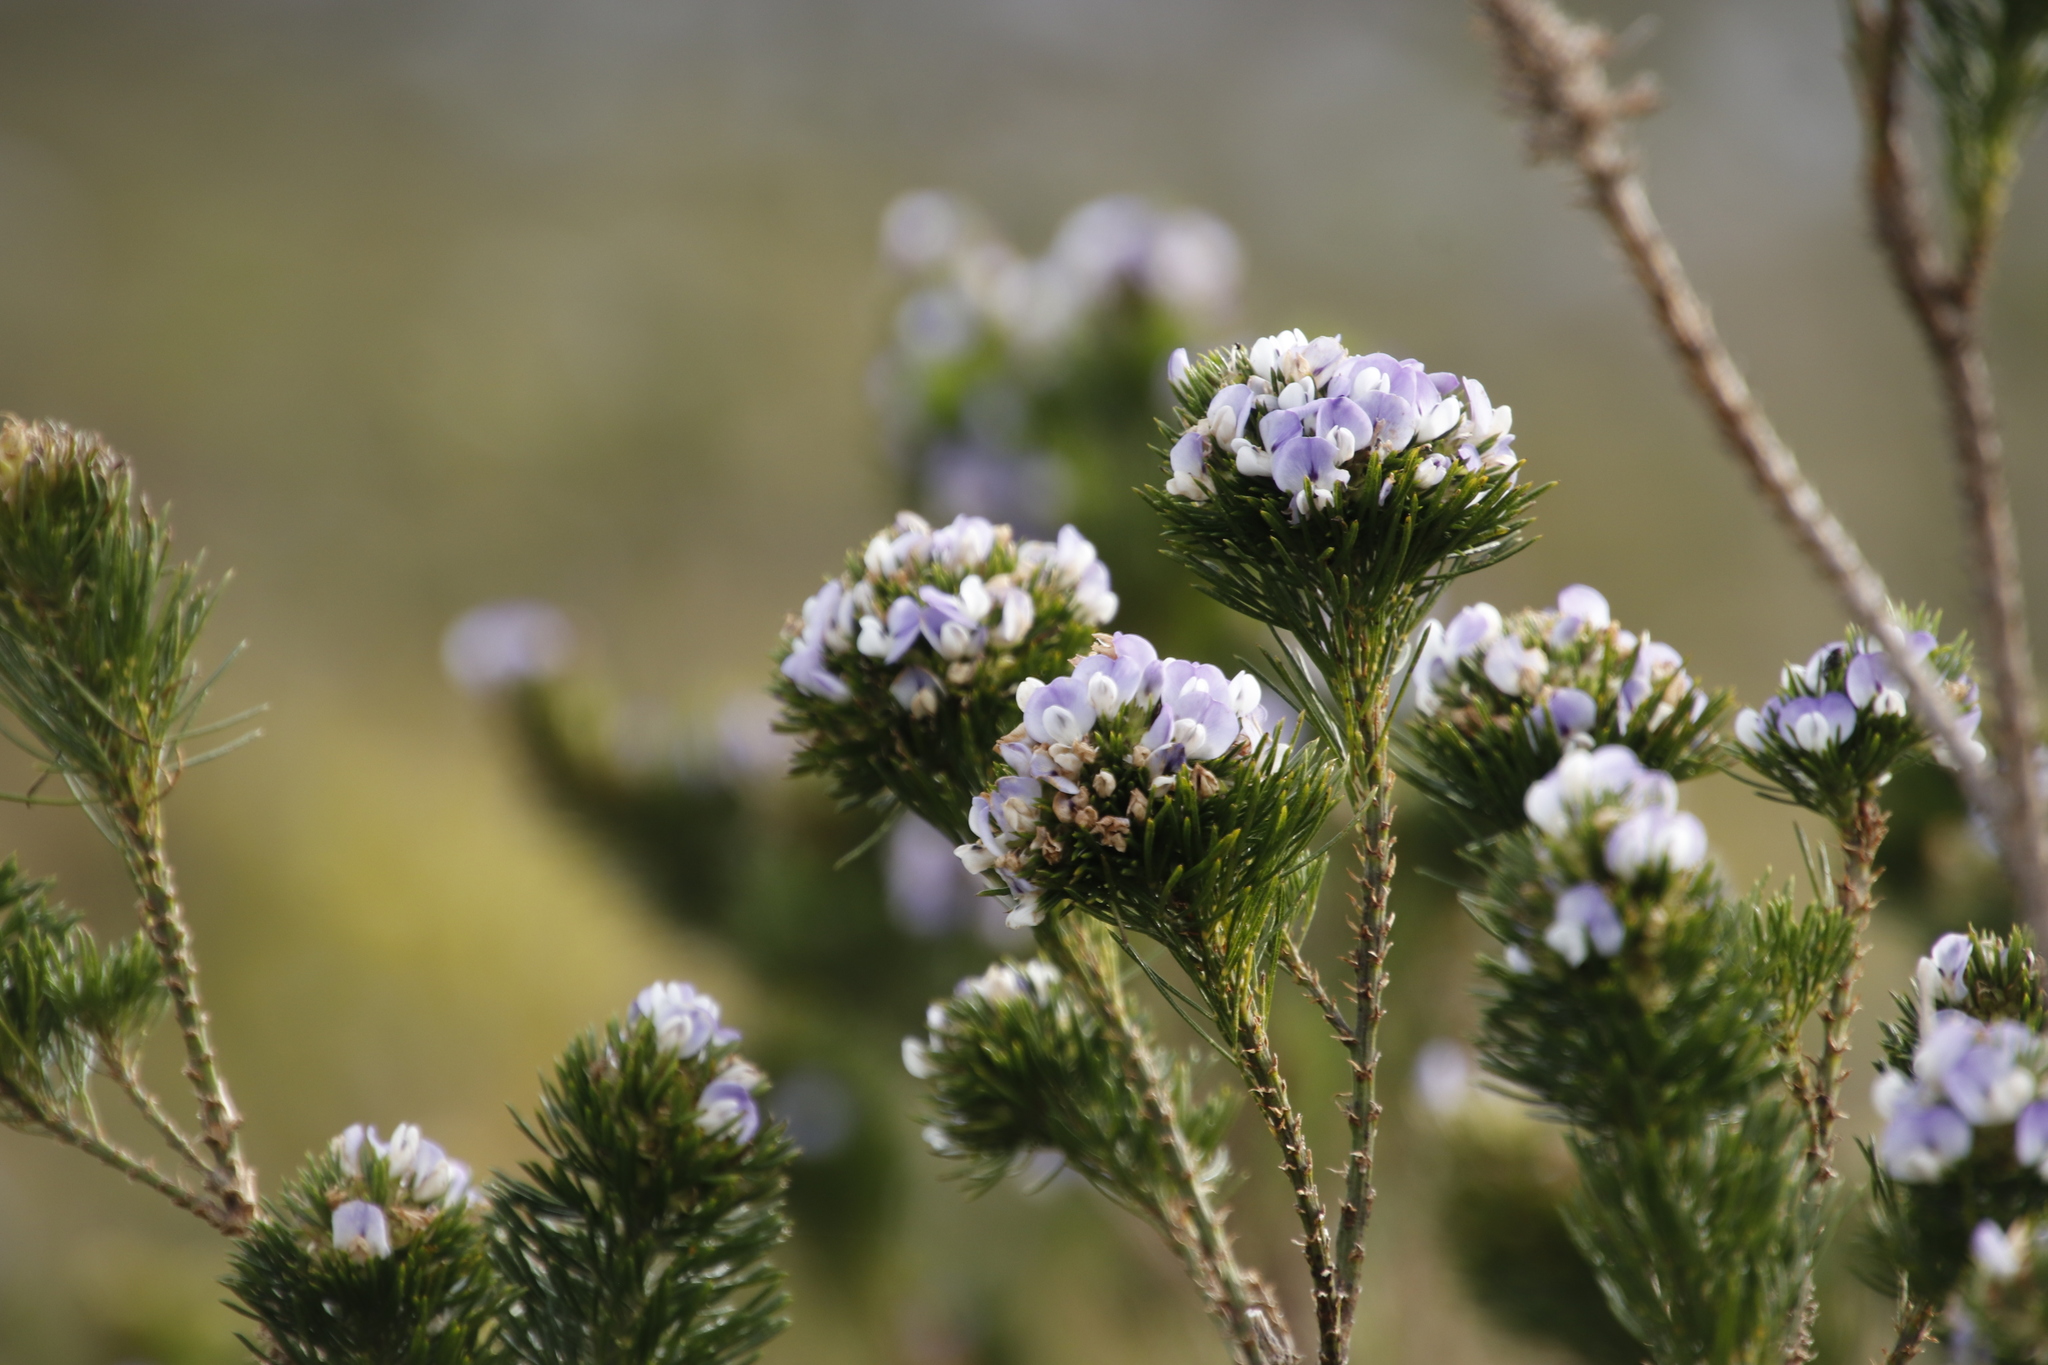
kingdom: Plantae
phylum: Tracheophyta
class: Magnoliopsida
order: Fabales
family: Fabaceae
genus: Psoralea
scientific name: Psoralea pinnata
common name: African scurfpea
